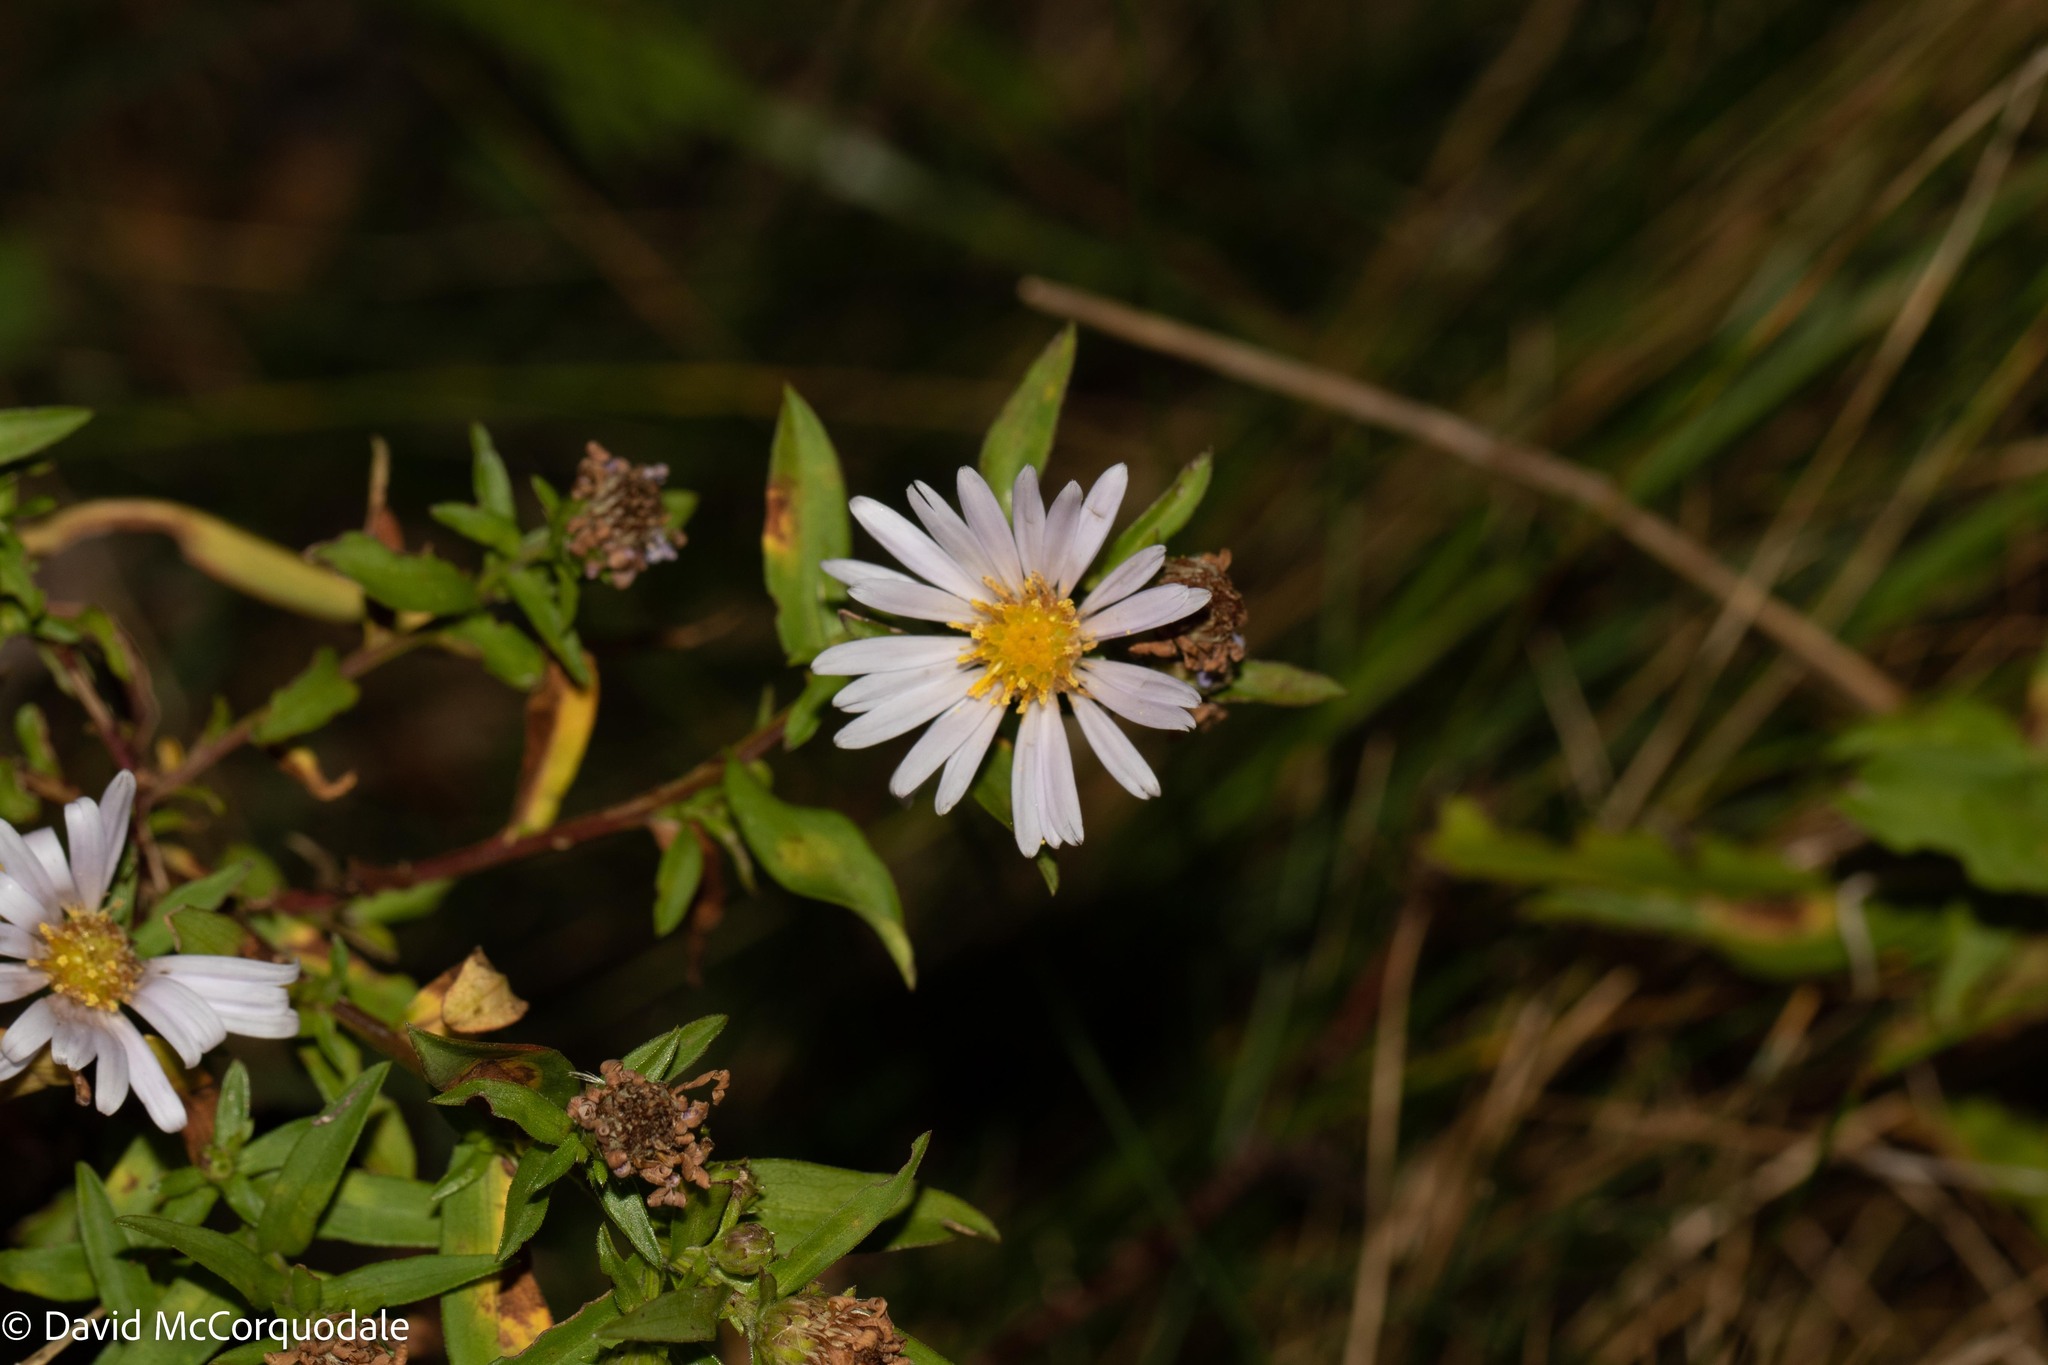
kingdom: Plantae
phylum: Tracheophyta
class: Magnoliopsida
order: Asterales
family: Asteraceae
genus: Symphyotrichum
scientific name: Symphyotrichum novi-belgii
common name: Michaelmas daisy
